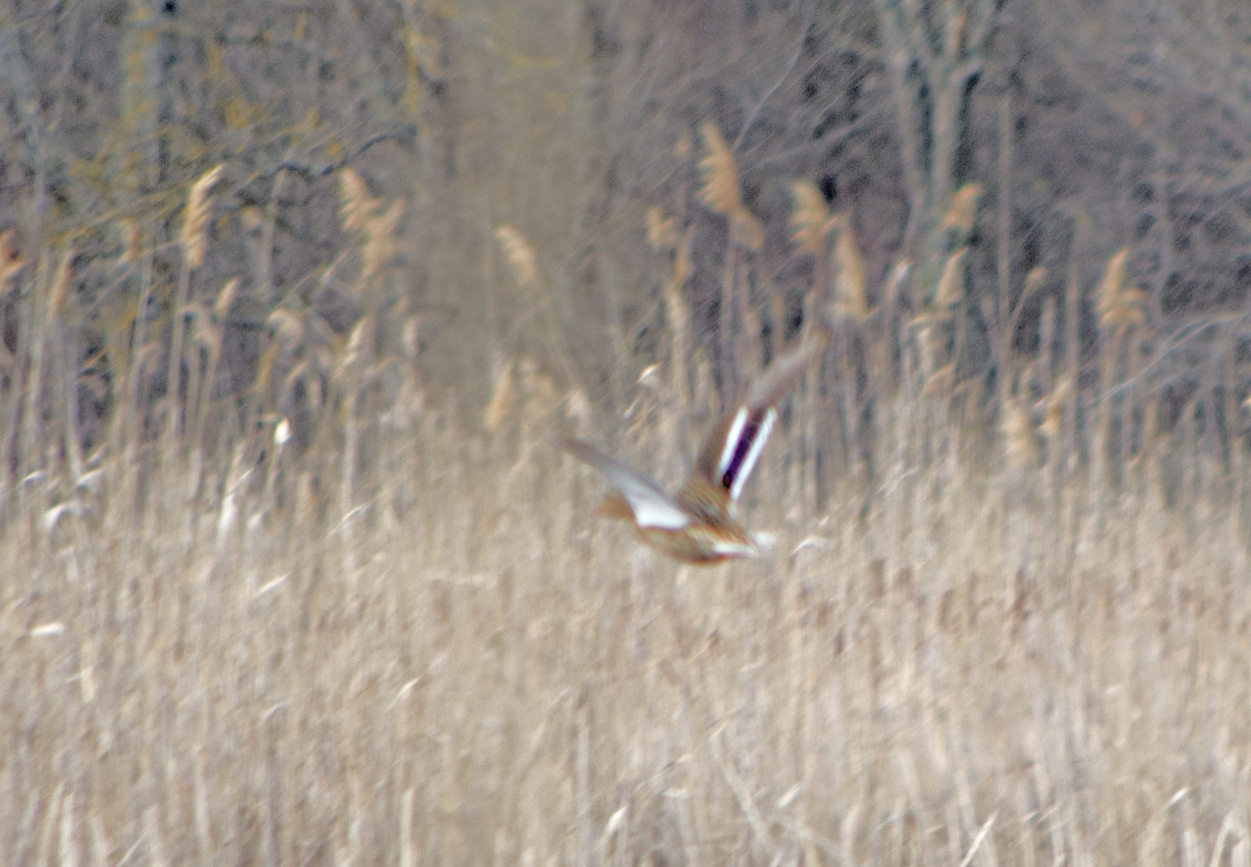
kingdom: Animalia
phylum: Chordata
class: Aves
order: Anseriformes
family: Anatidae
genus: Anas
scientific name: Anas platyrhynchos
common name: Mallard
